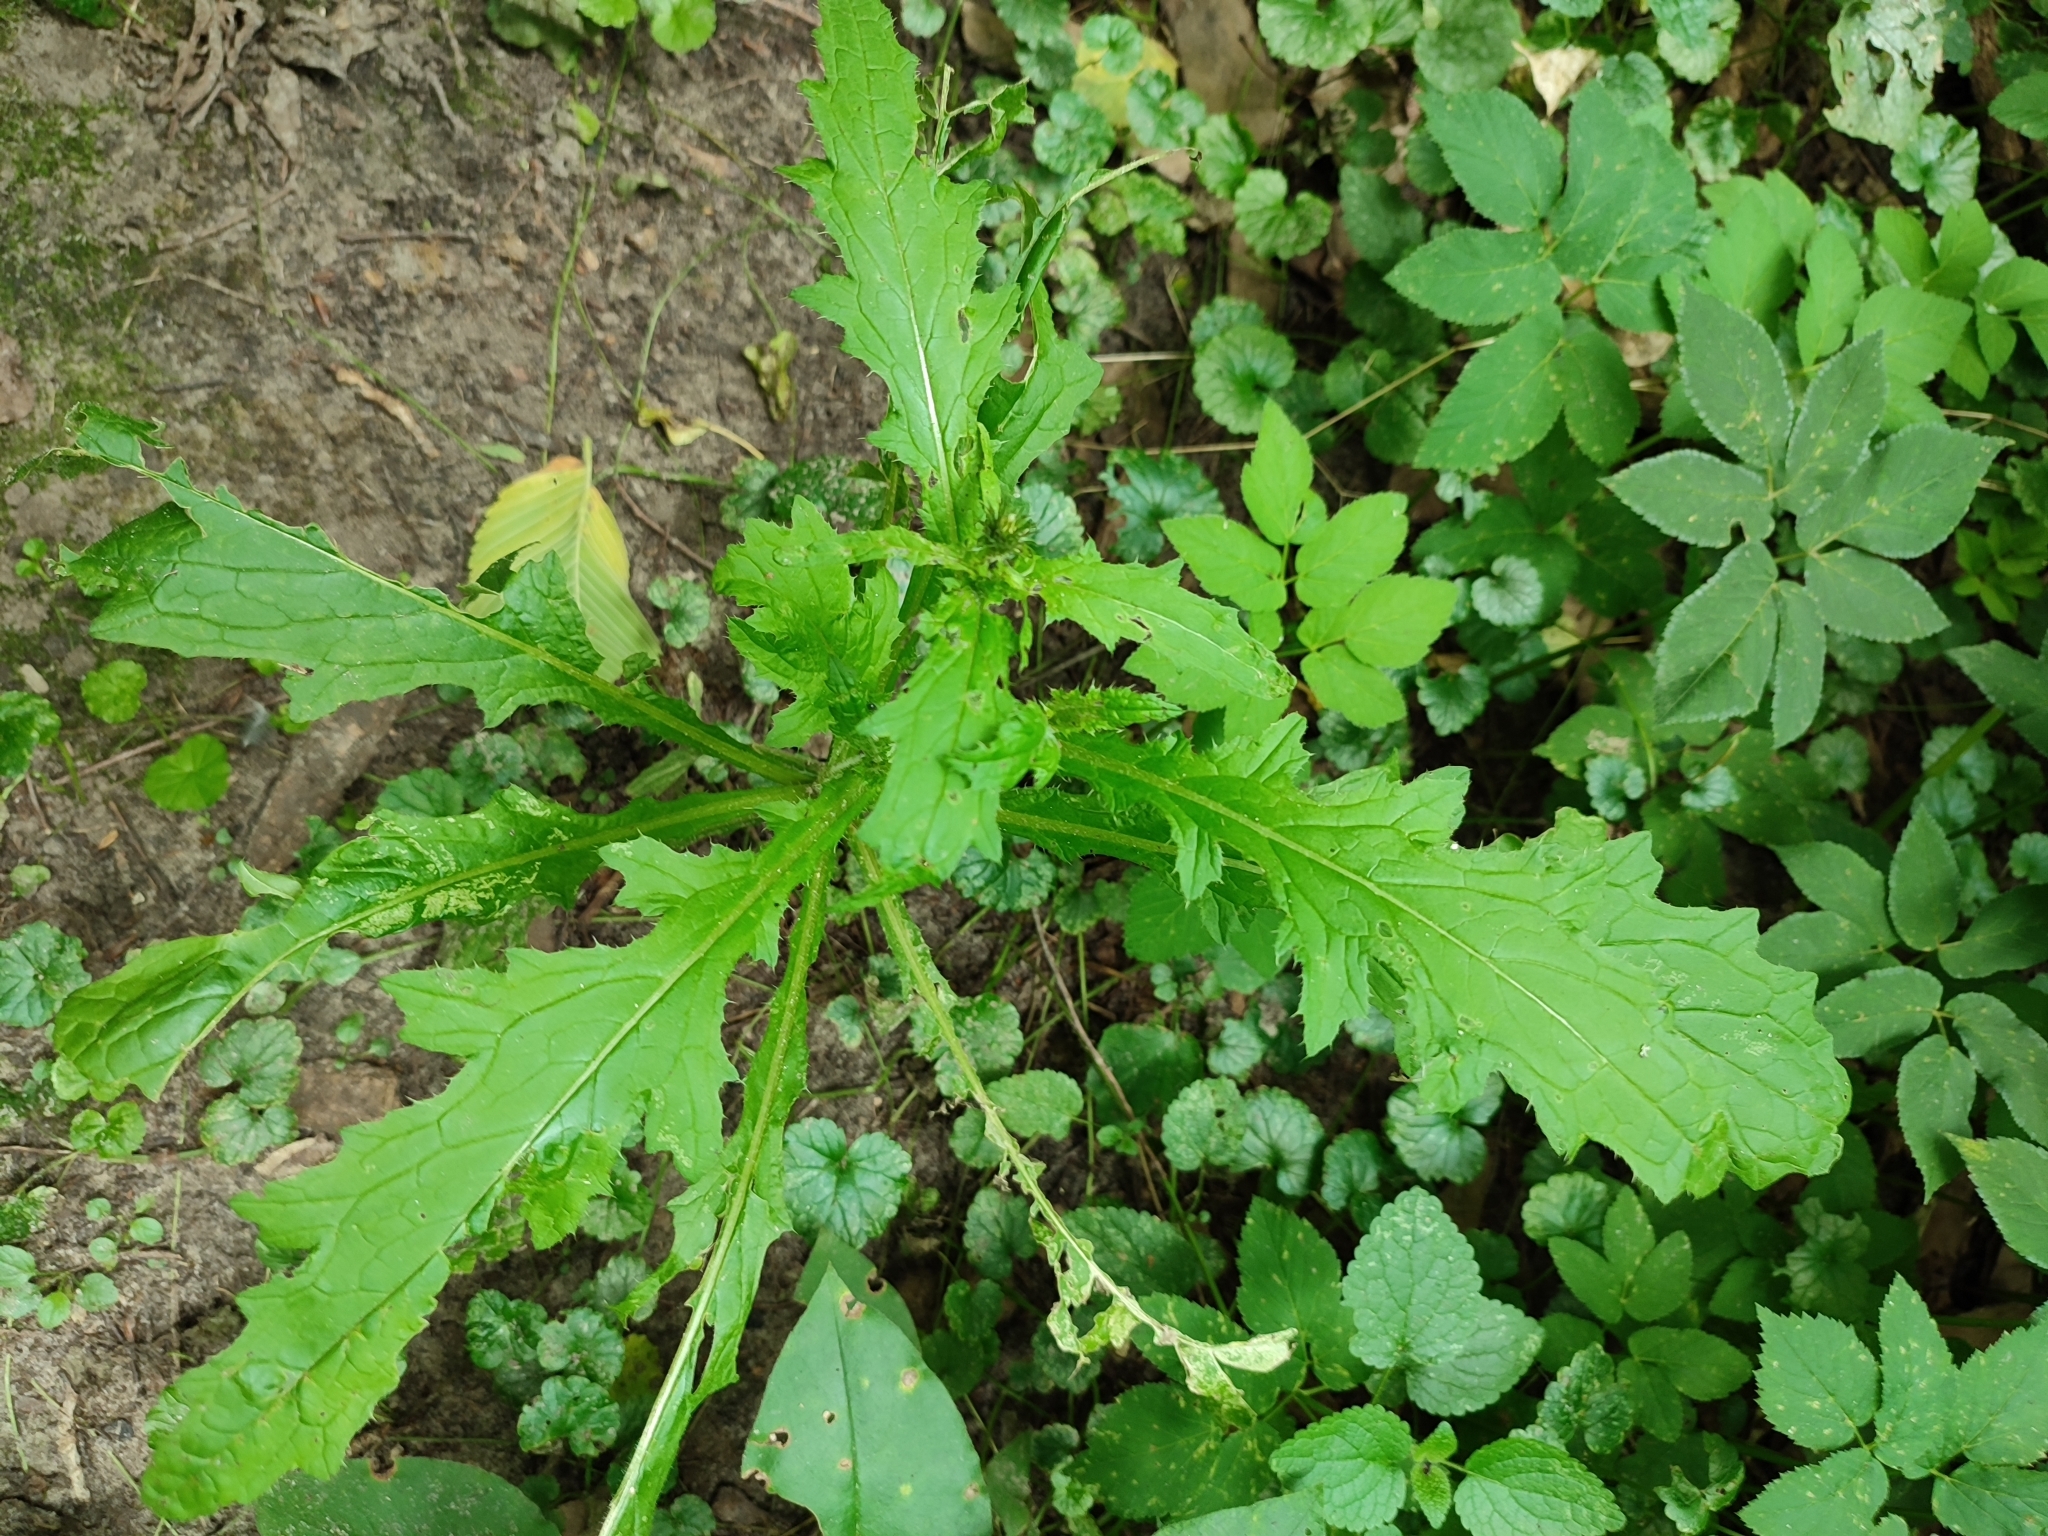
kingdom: Plantae
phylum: Tracheophyta
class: Magnoliopsida
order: Asterales
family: Asteraceae
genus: Carduus
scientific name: Carduus crispus
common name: Welted thistle
